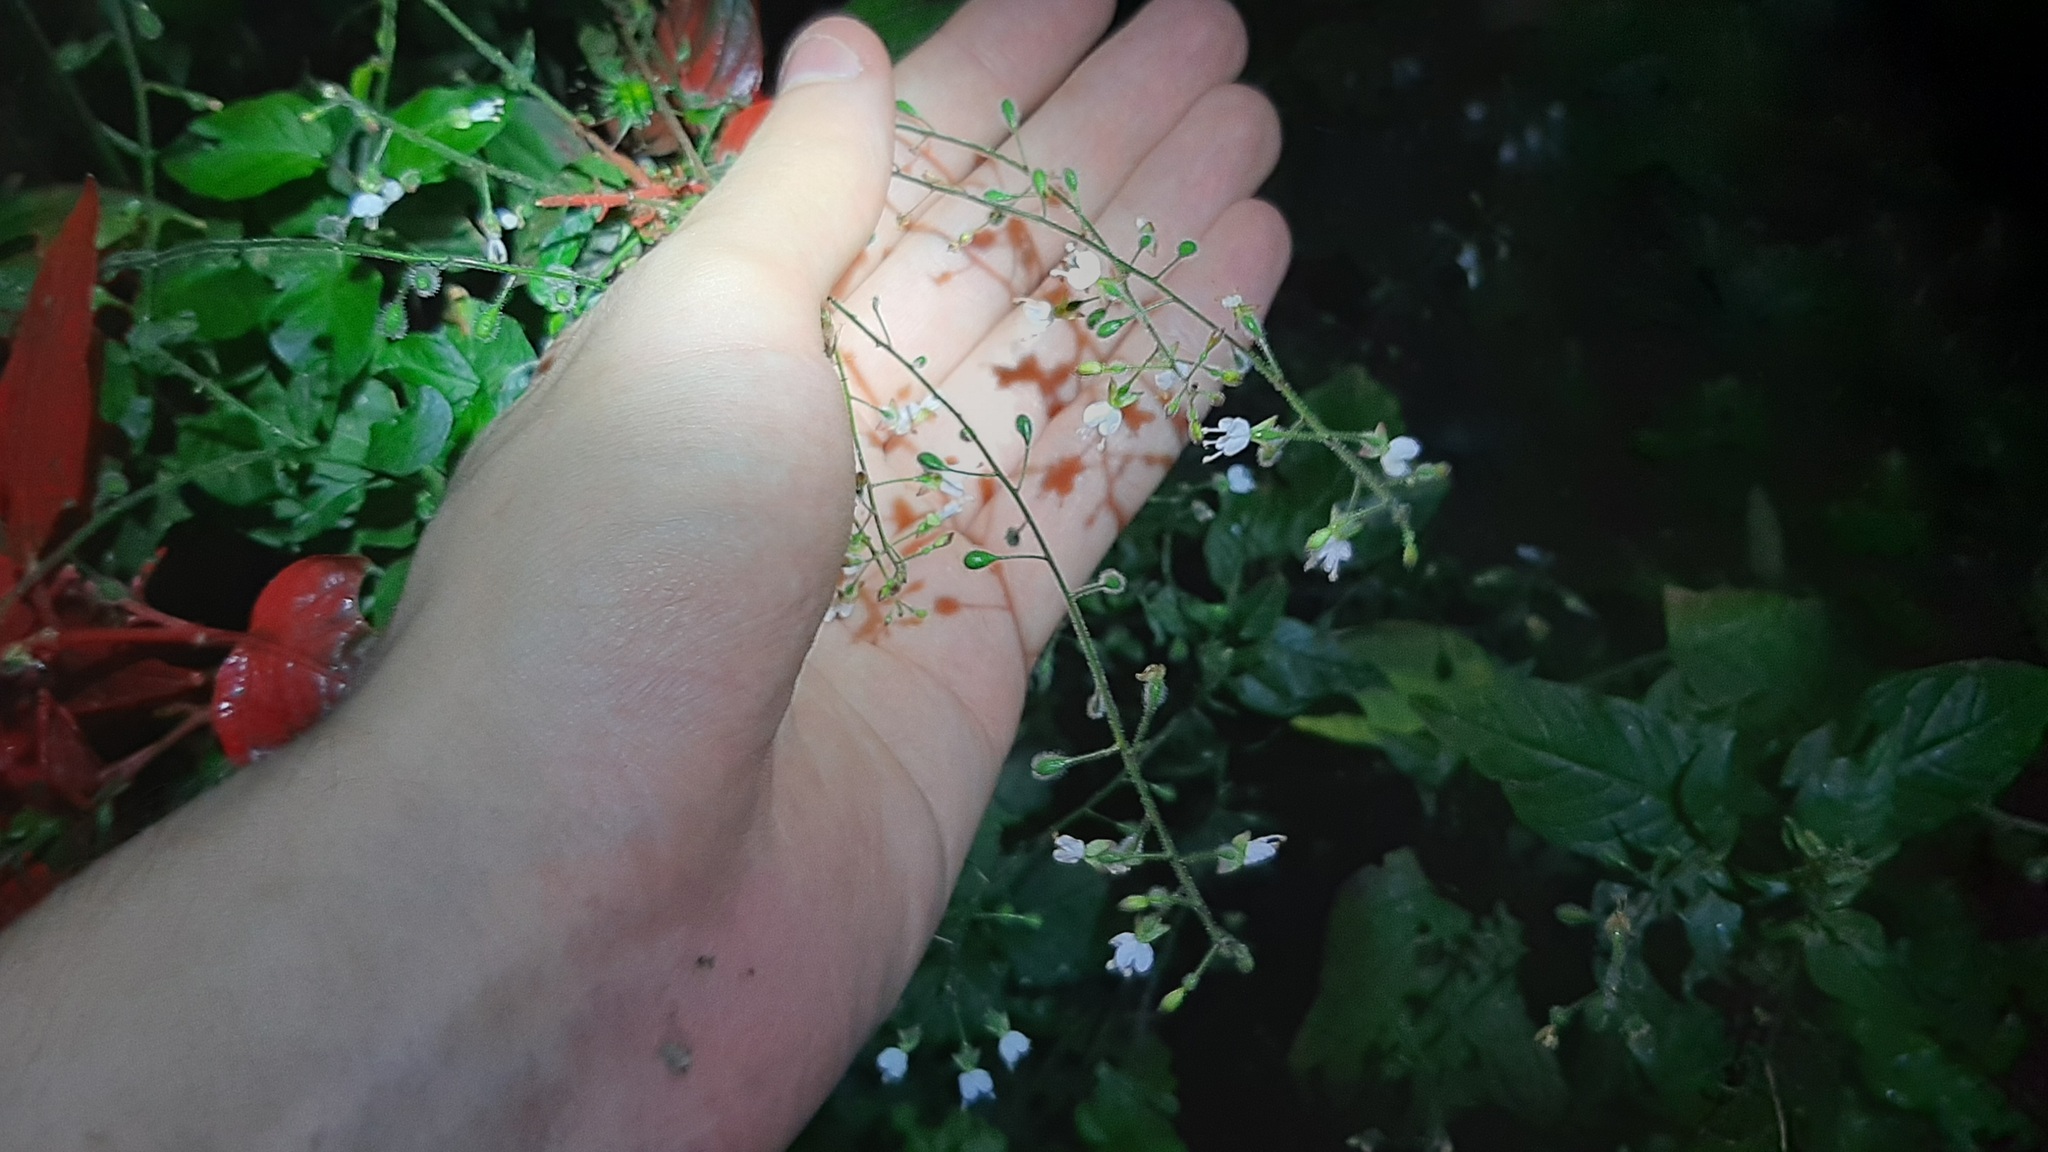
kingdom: Plantae
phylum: Tracheophyta
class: Magnoliopsida
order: Myrtales
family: Onagraceae
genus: Circaea
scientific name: Circaea lutetiana
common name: Enchanter's-nightshade
